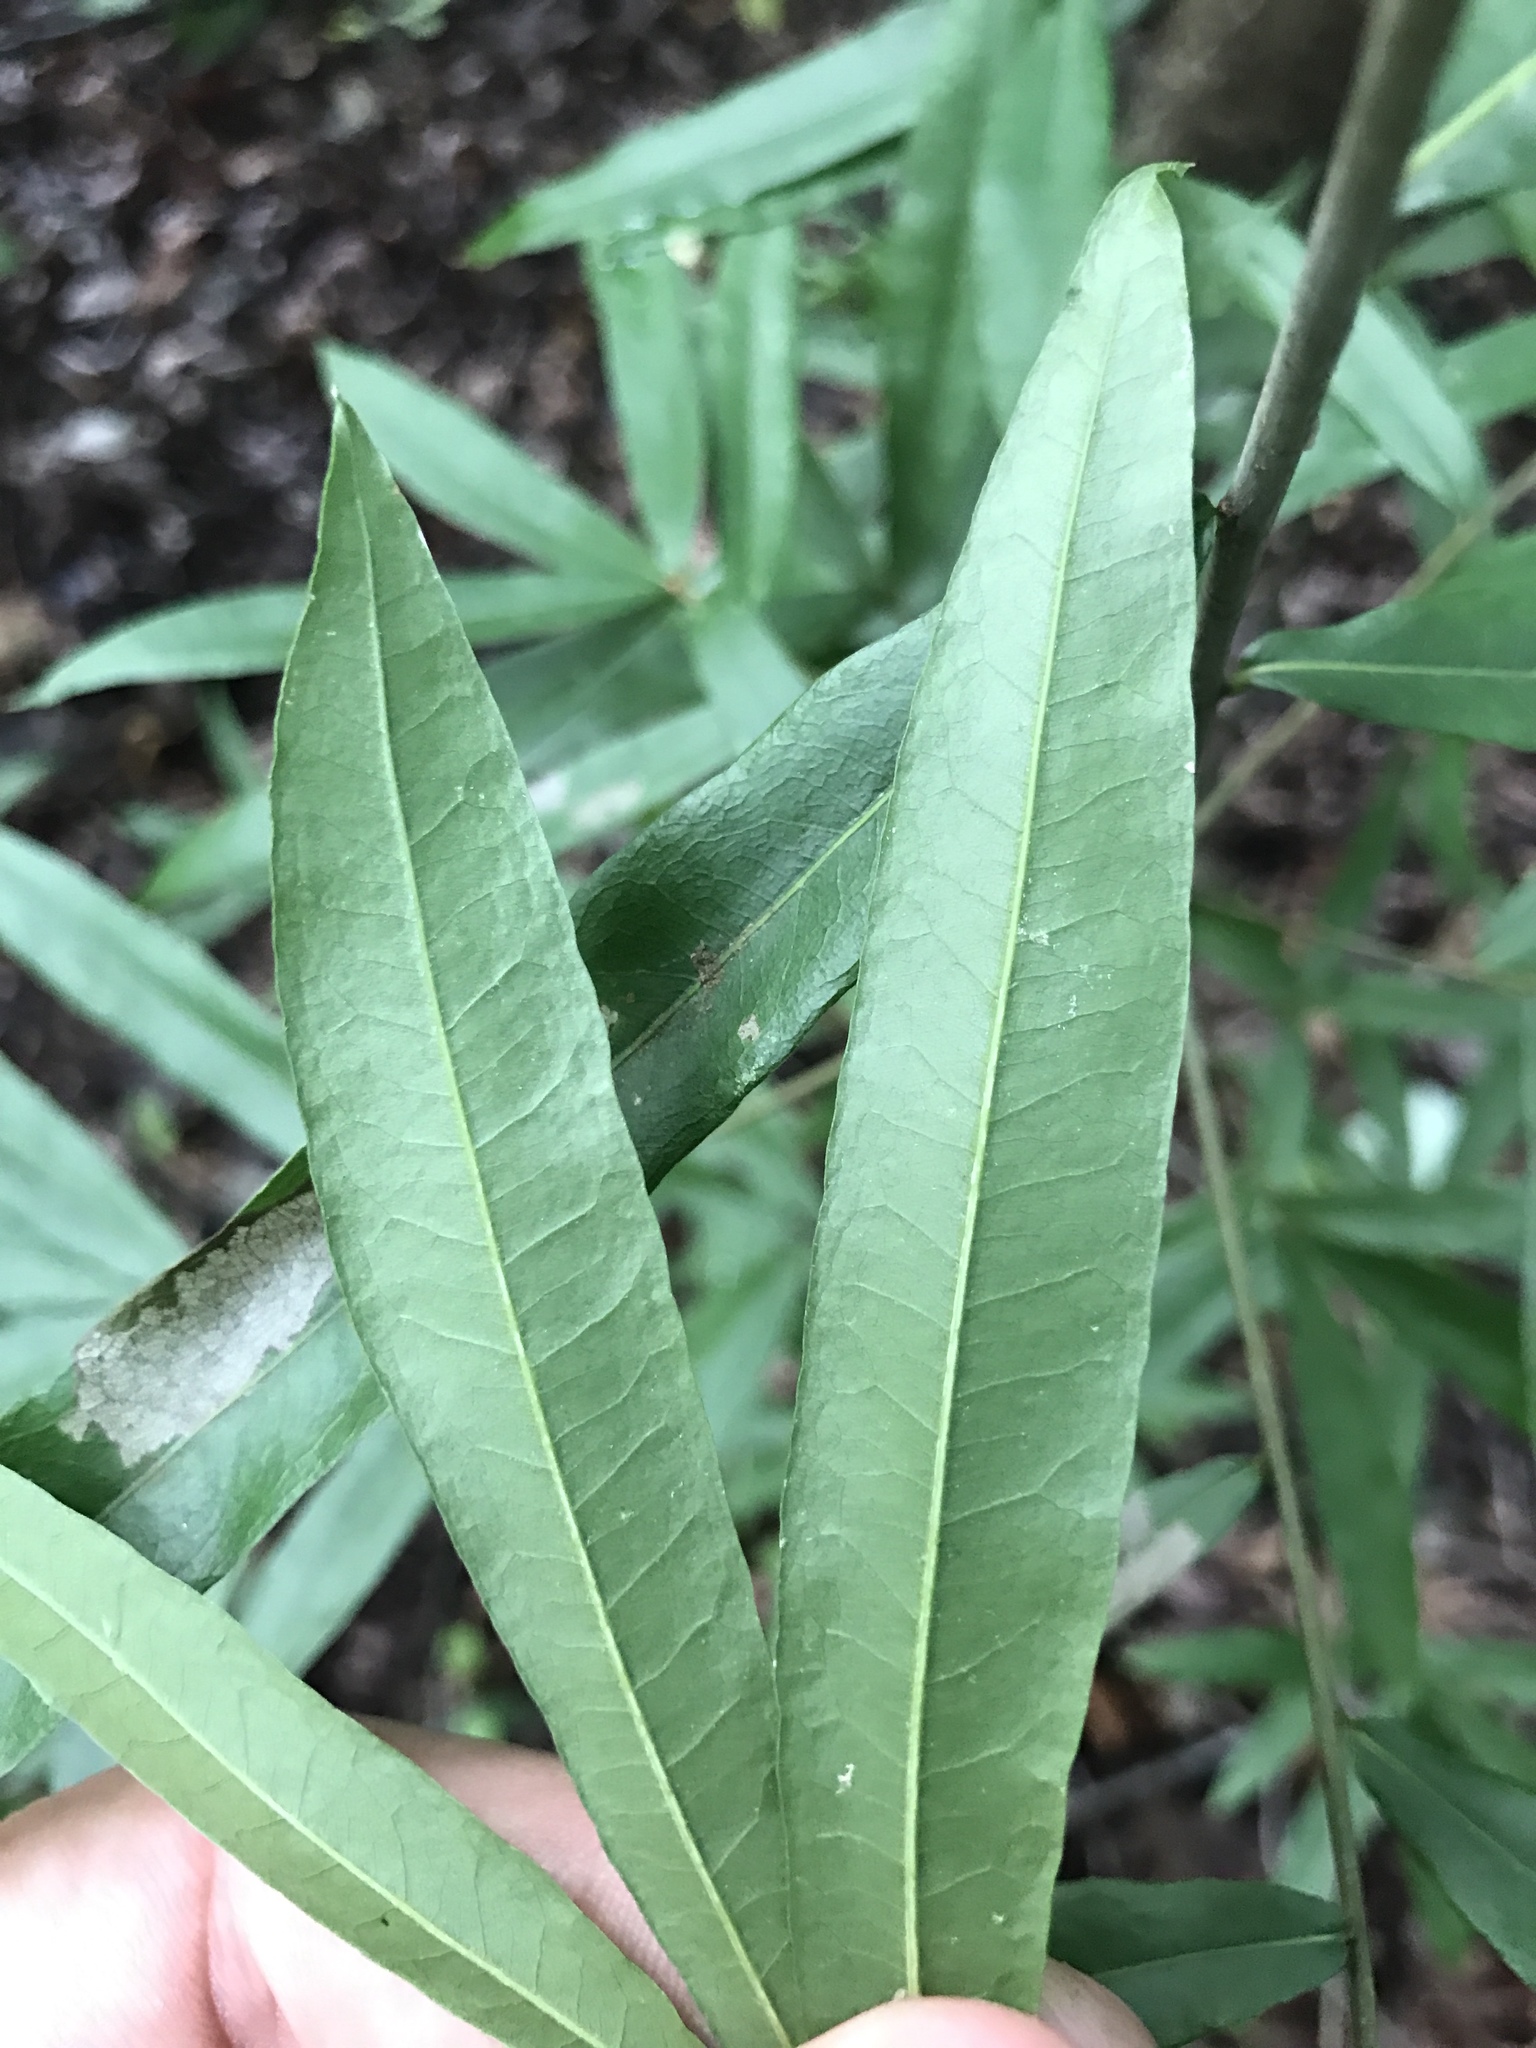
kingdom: Plantae
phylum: Tracheophyta
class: Magnoliopsida
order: Fagales
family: Fagaceae
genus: Quercus
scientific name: Quercus phellos
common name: Willow oak
